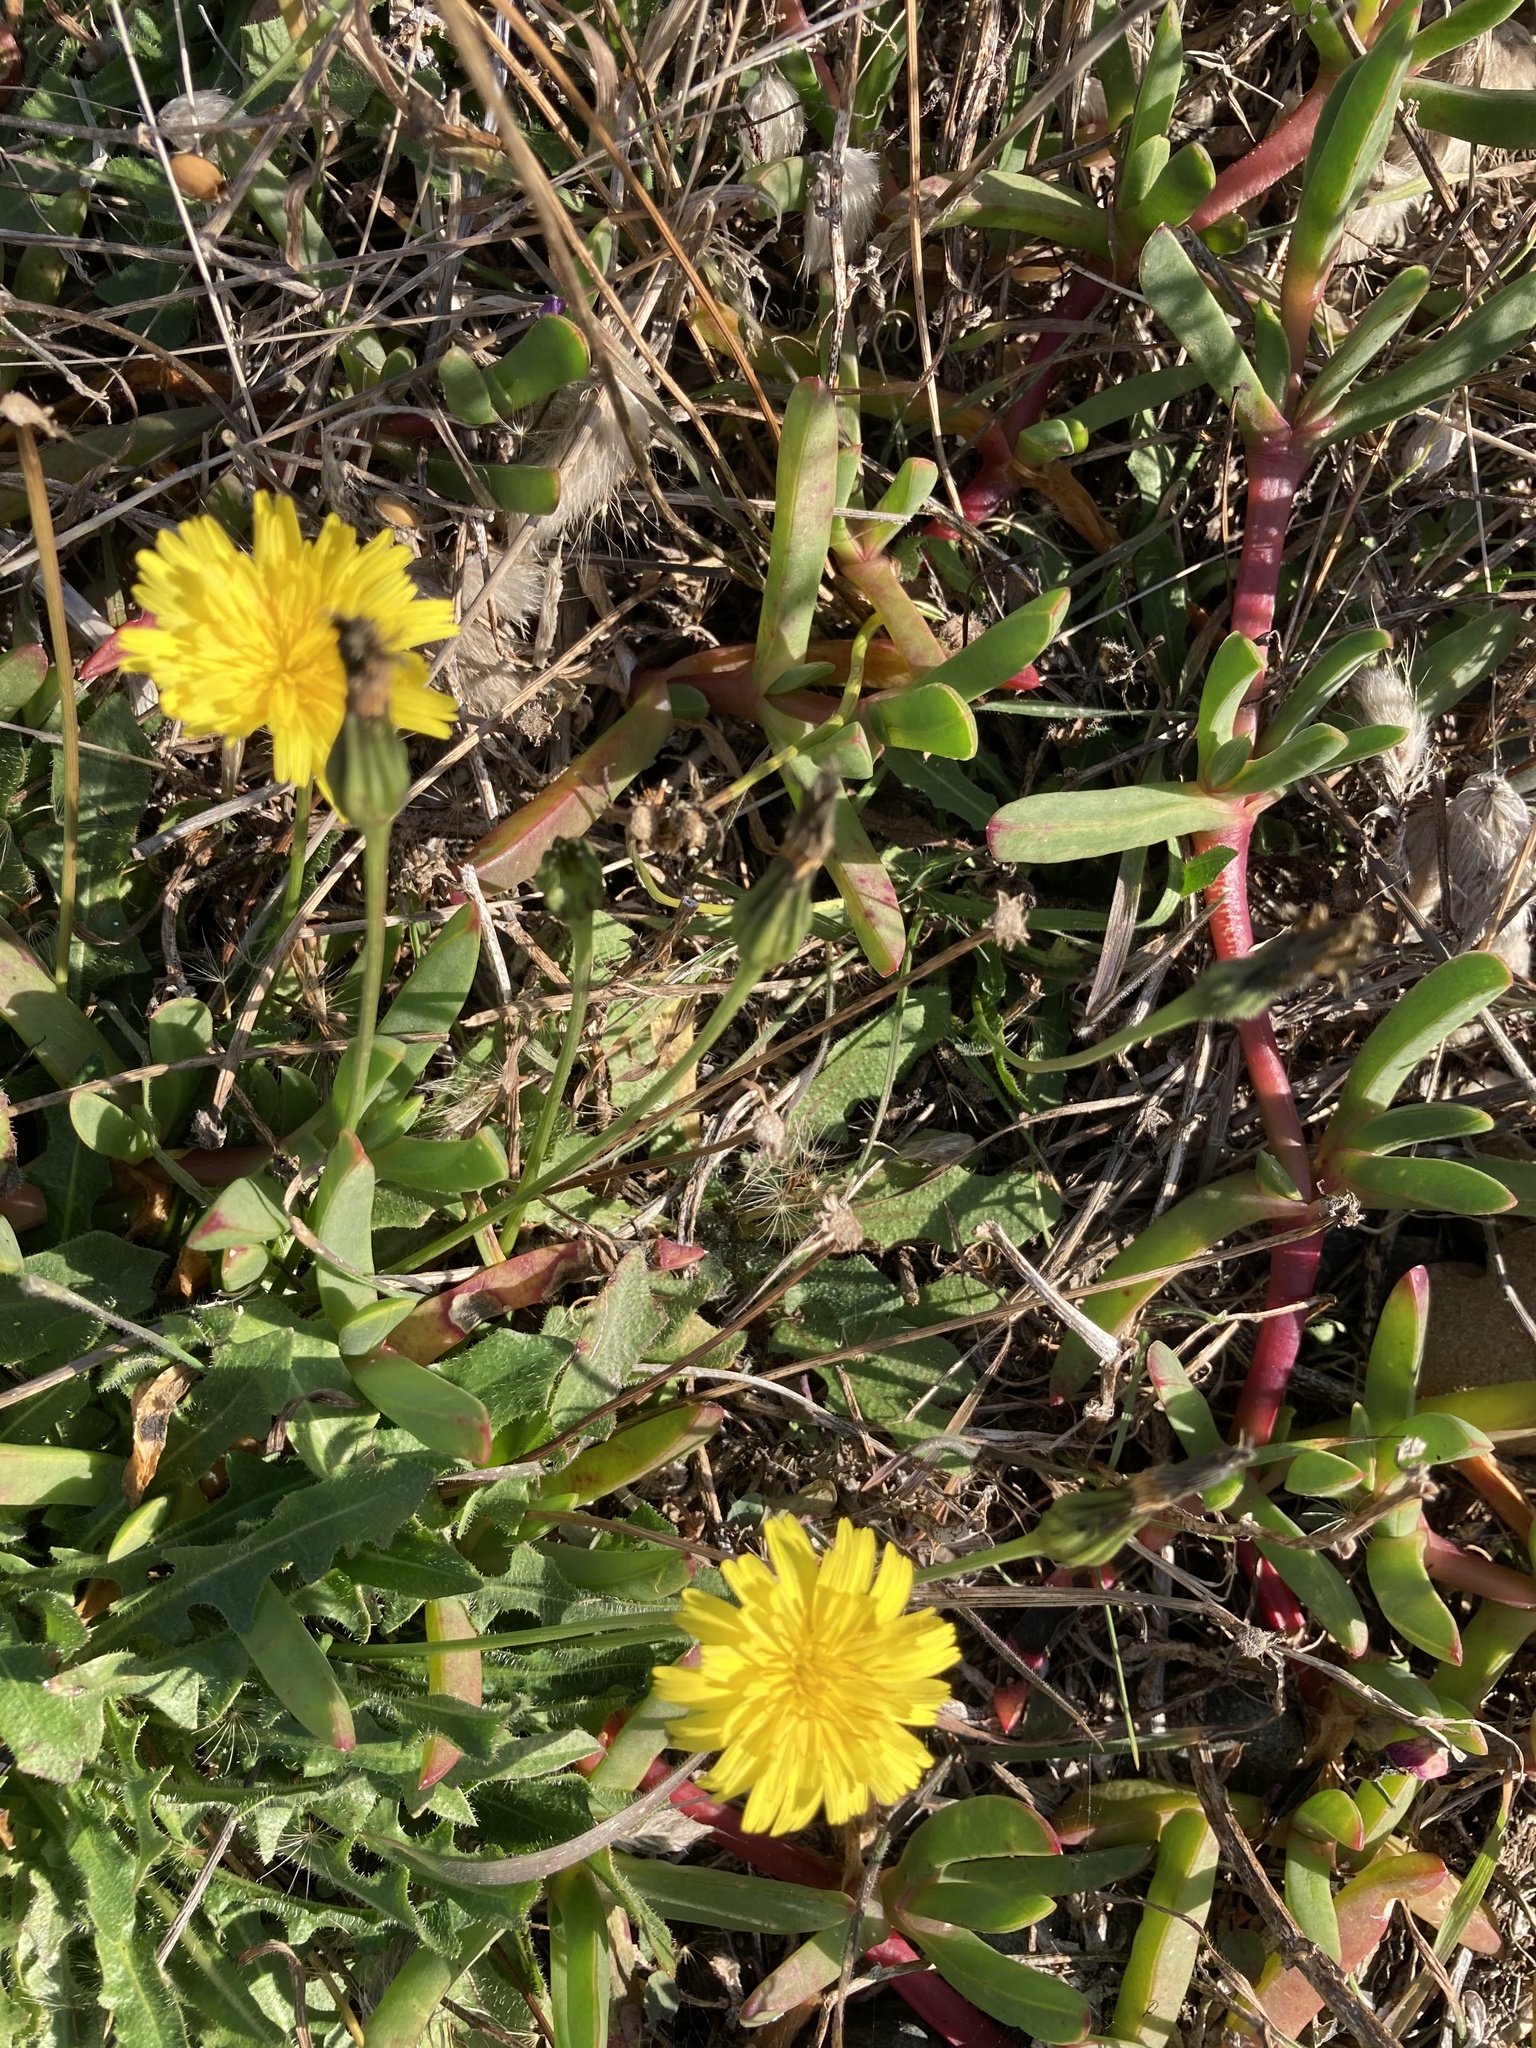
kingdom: Plantae
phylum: Tracheophyta
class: Magnoliopsida
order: Asterales
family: Asteraceae
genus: Hypochaeris
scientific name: Hypochaeris radicata
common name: Flatweed
